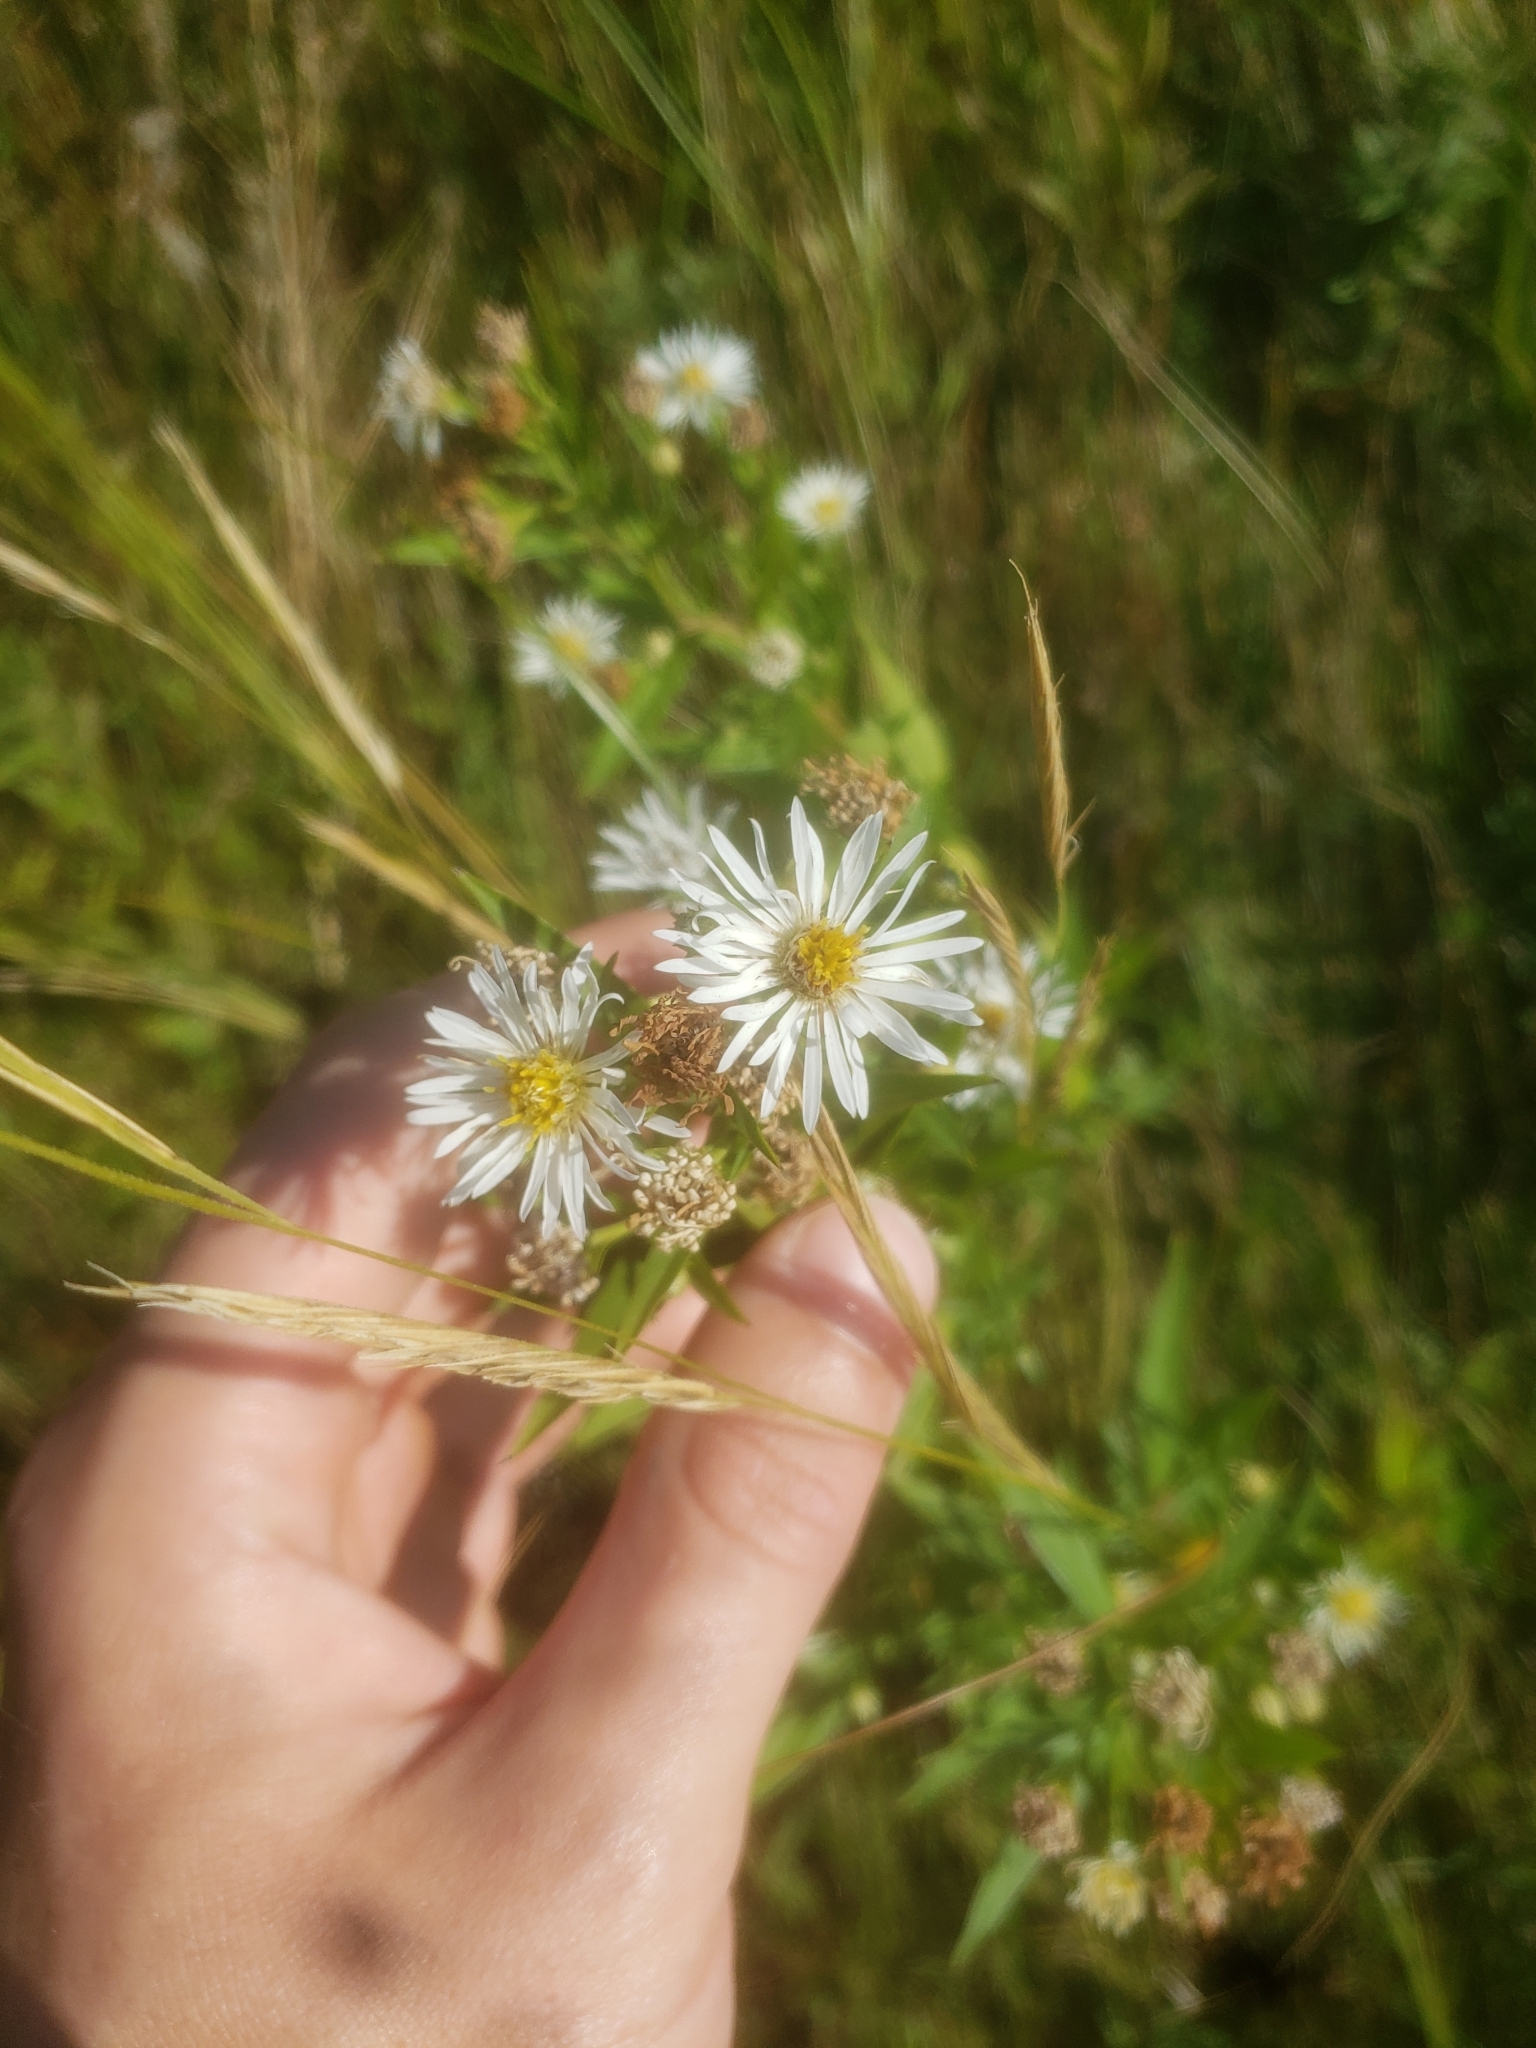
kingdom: Plantae
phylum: Tracheophyta
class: Magnoliopsida
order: Asterales
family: Asteraceae
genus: Symphyotrichum
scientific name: Symphyotrichum lanceolatum
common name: Panicled aster
